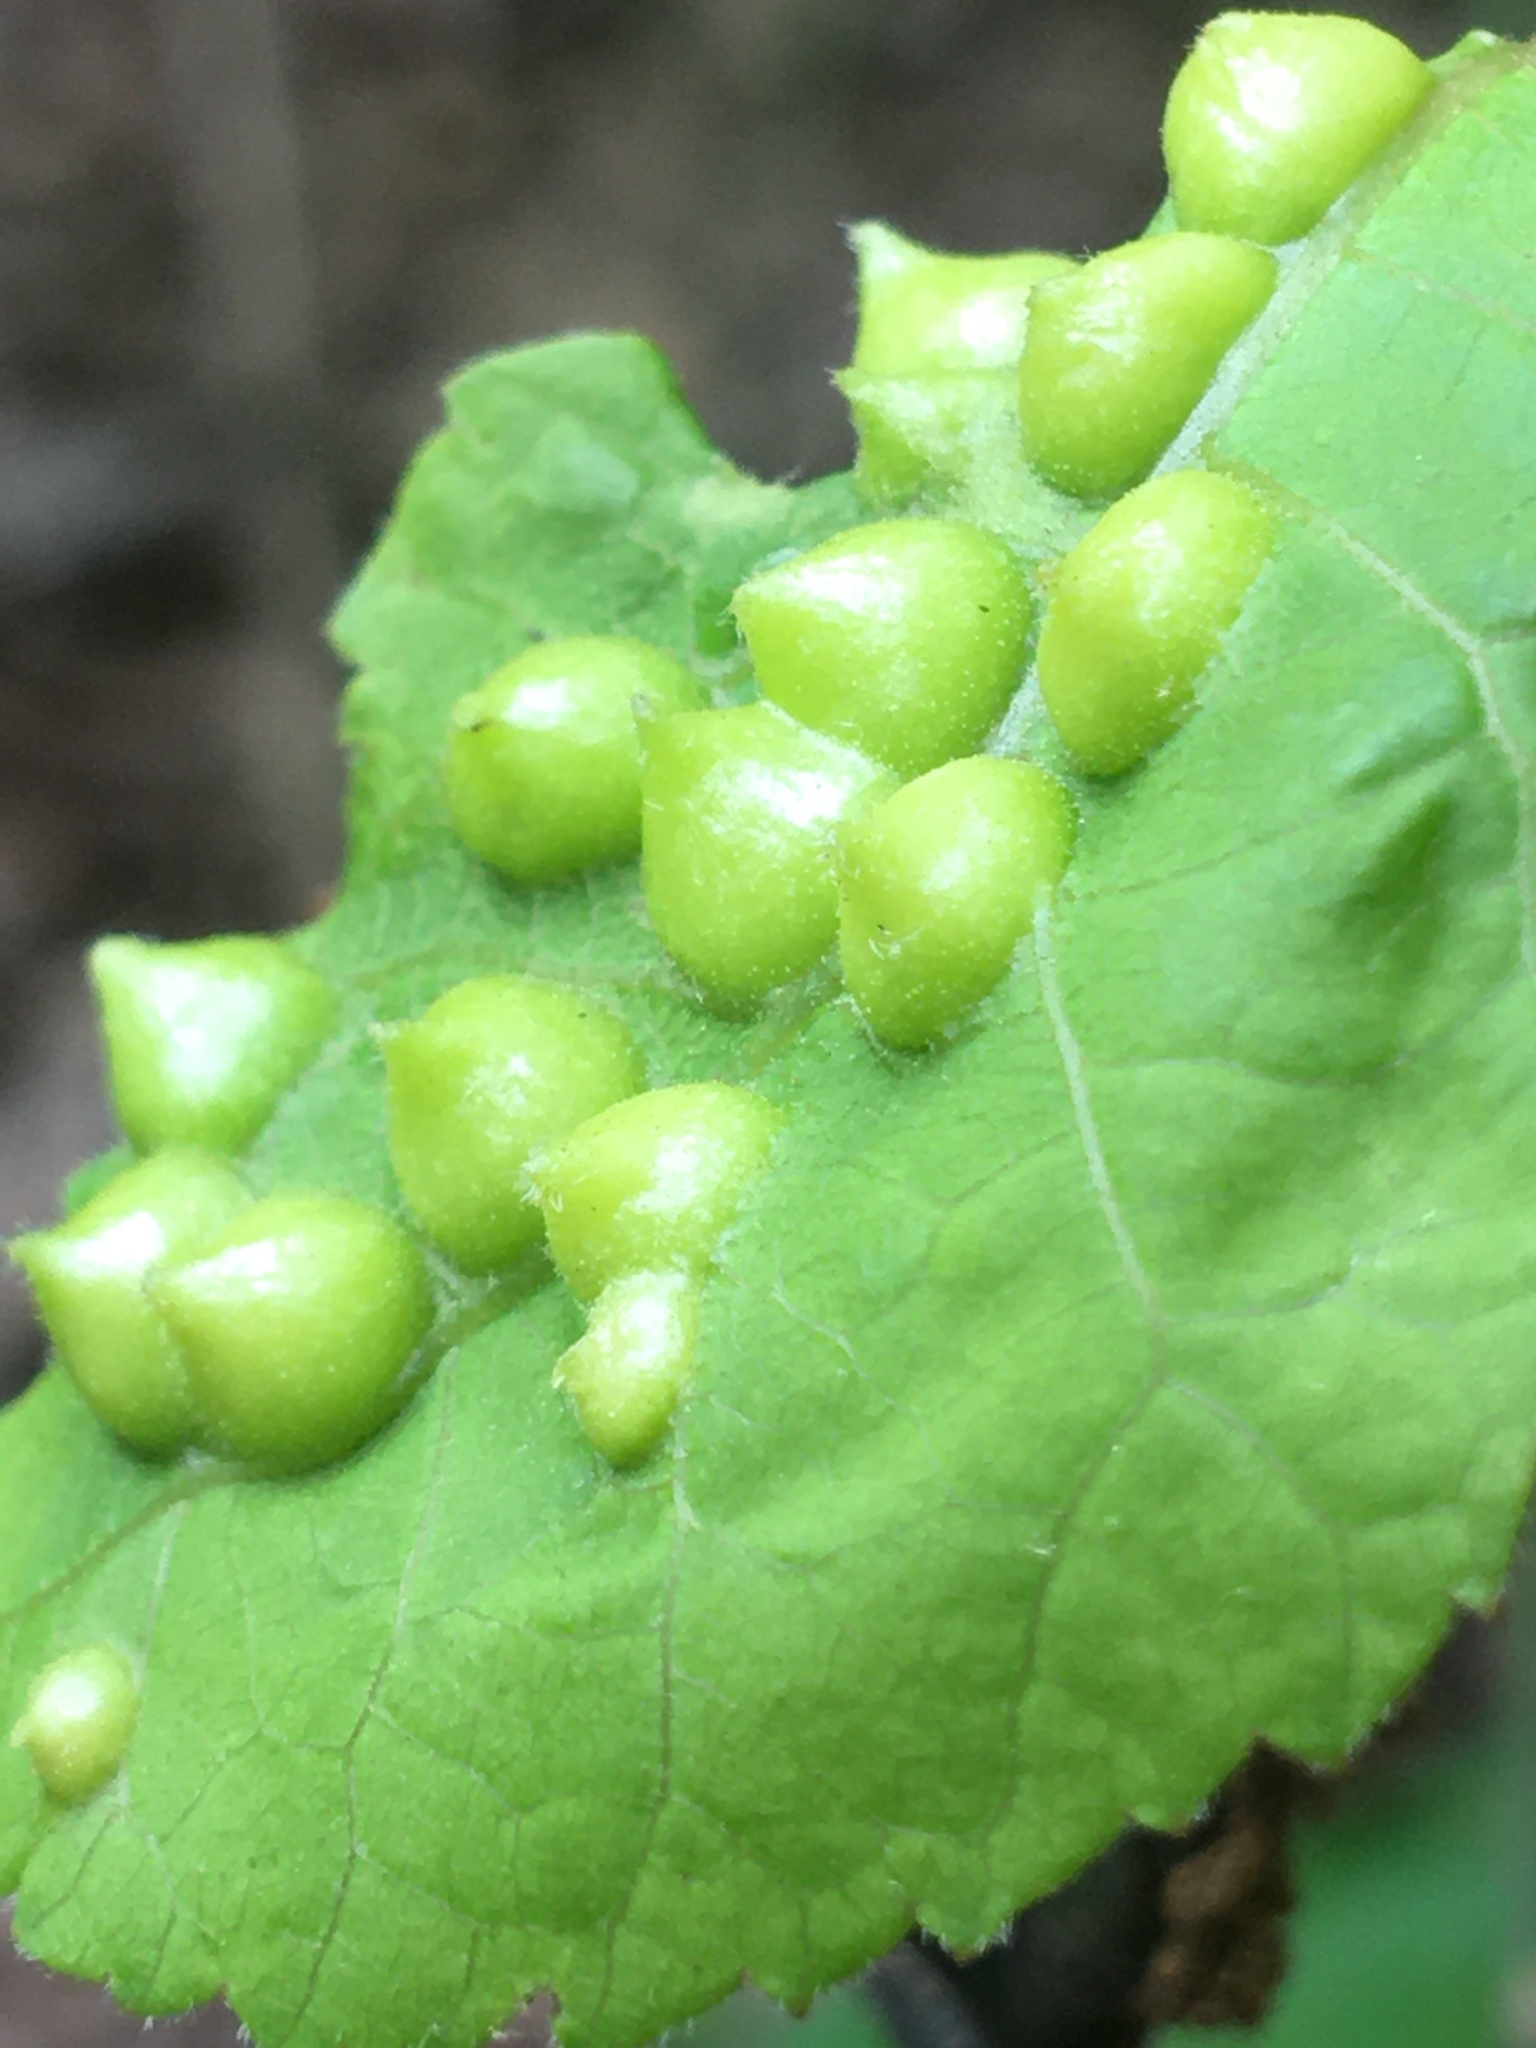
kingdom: Animalia
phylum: Arthropoda
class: Insecta
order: Hemiptera
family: Phylloxeridae
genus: Phylloxera
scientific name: Phylloxera caryaefallax
